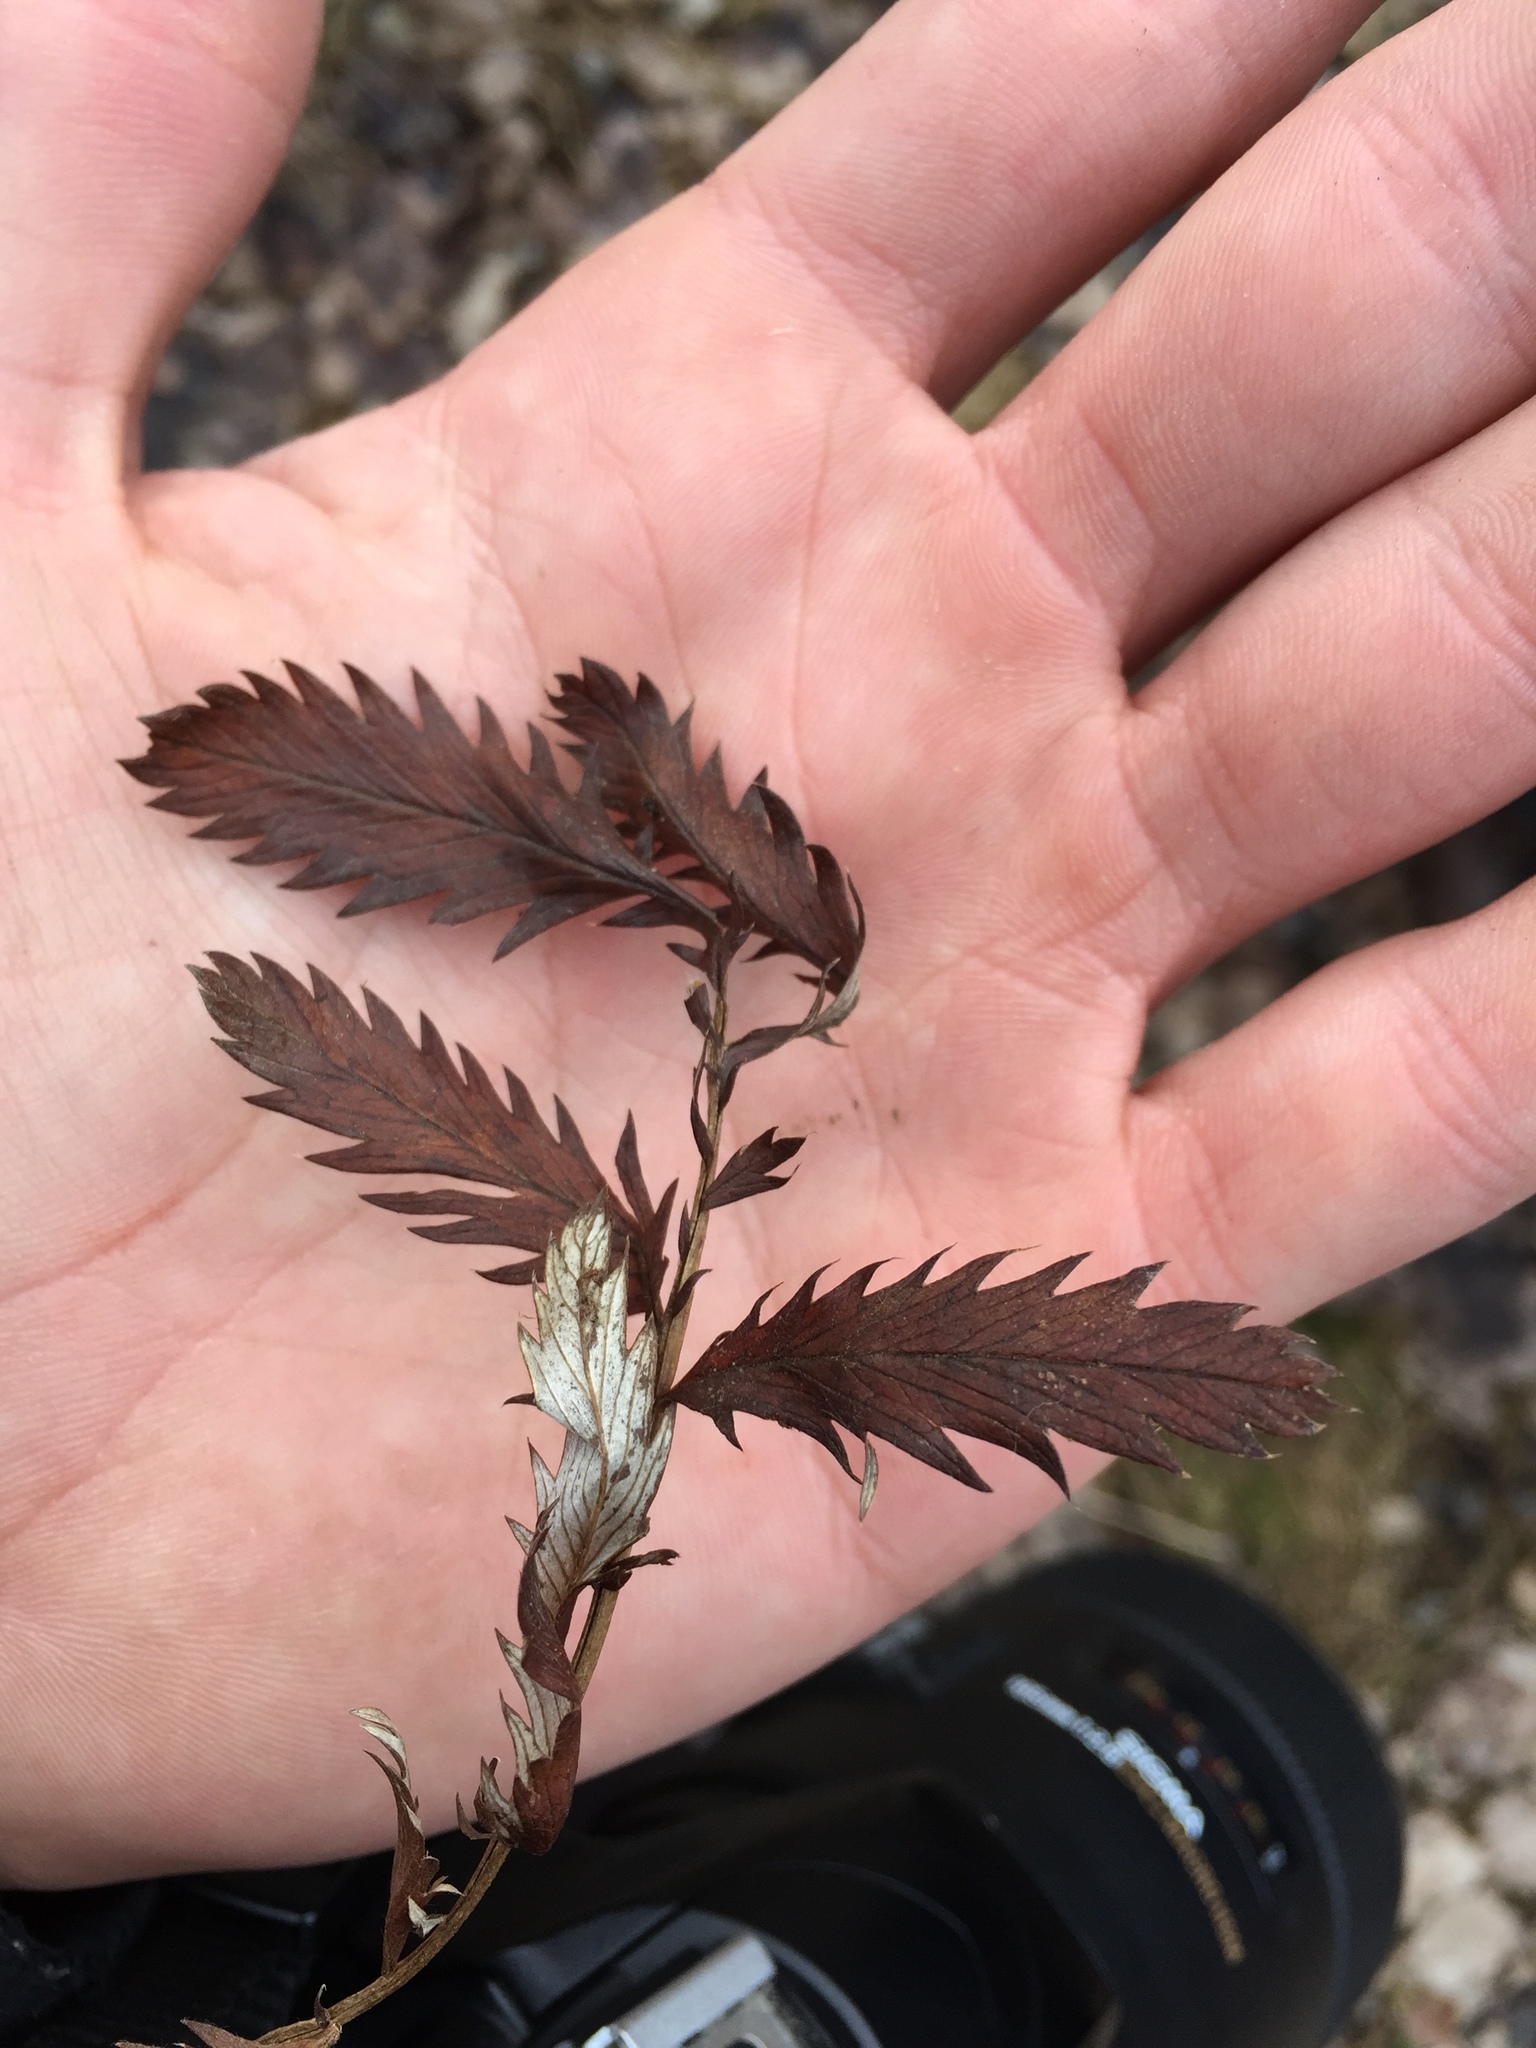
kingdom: Plantae
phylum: Tracheophyta
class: Magnoliopsida
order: Rosales
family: Rosaceae
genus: Argentina
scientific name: Argentina anserina
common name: Common silverweed
